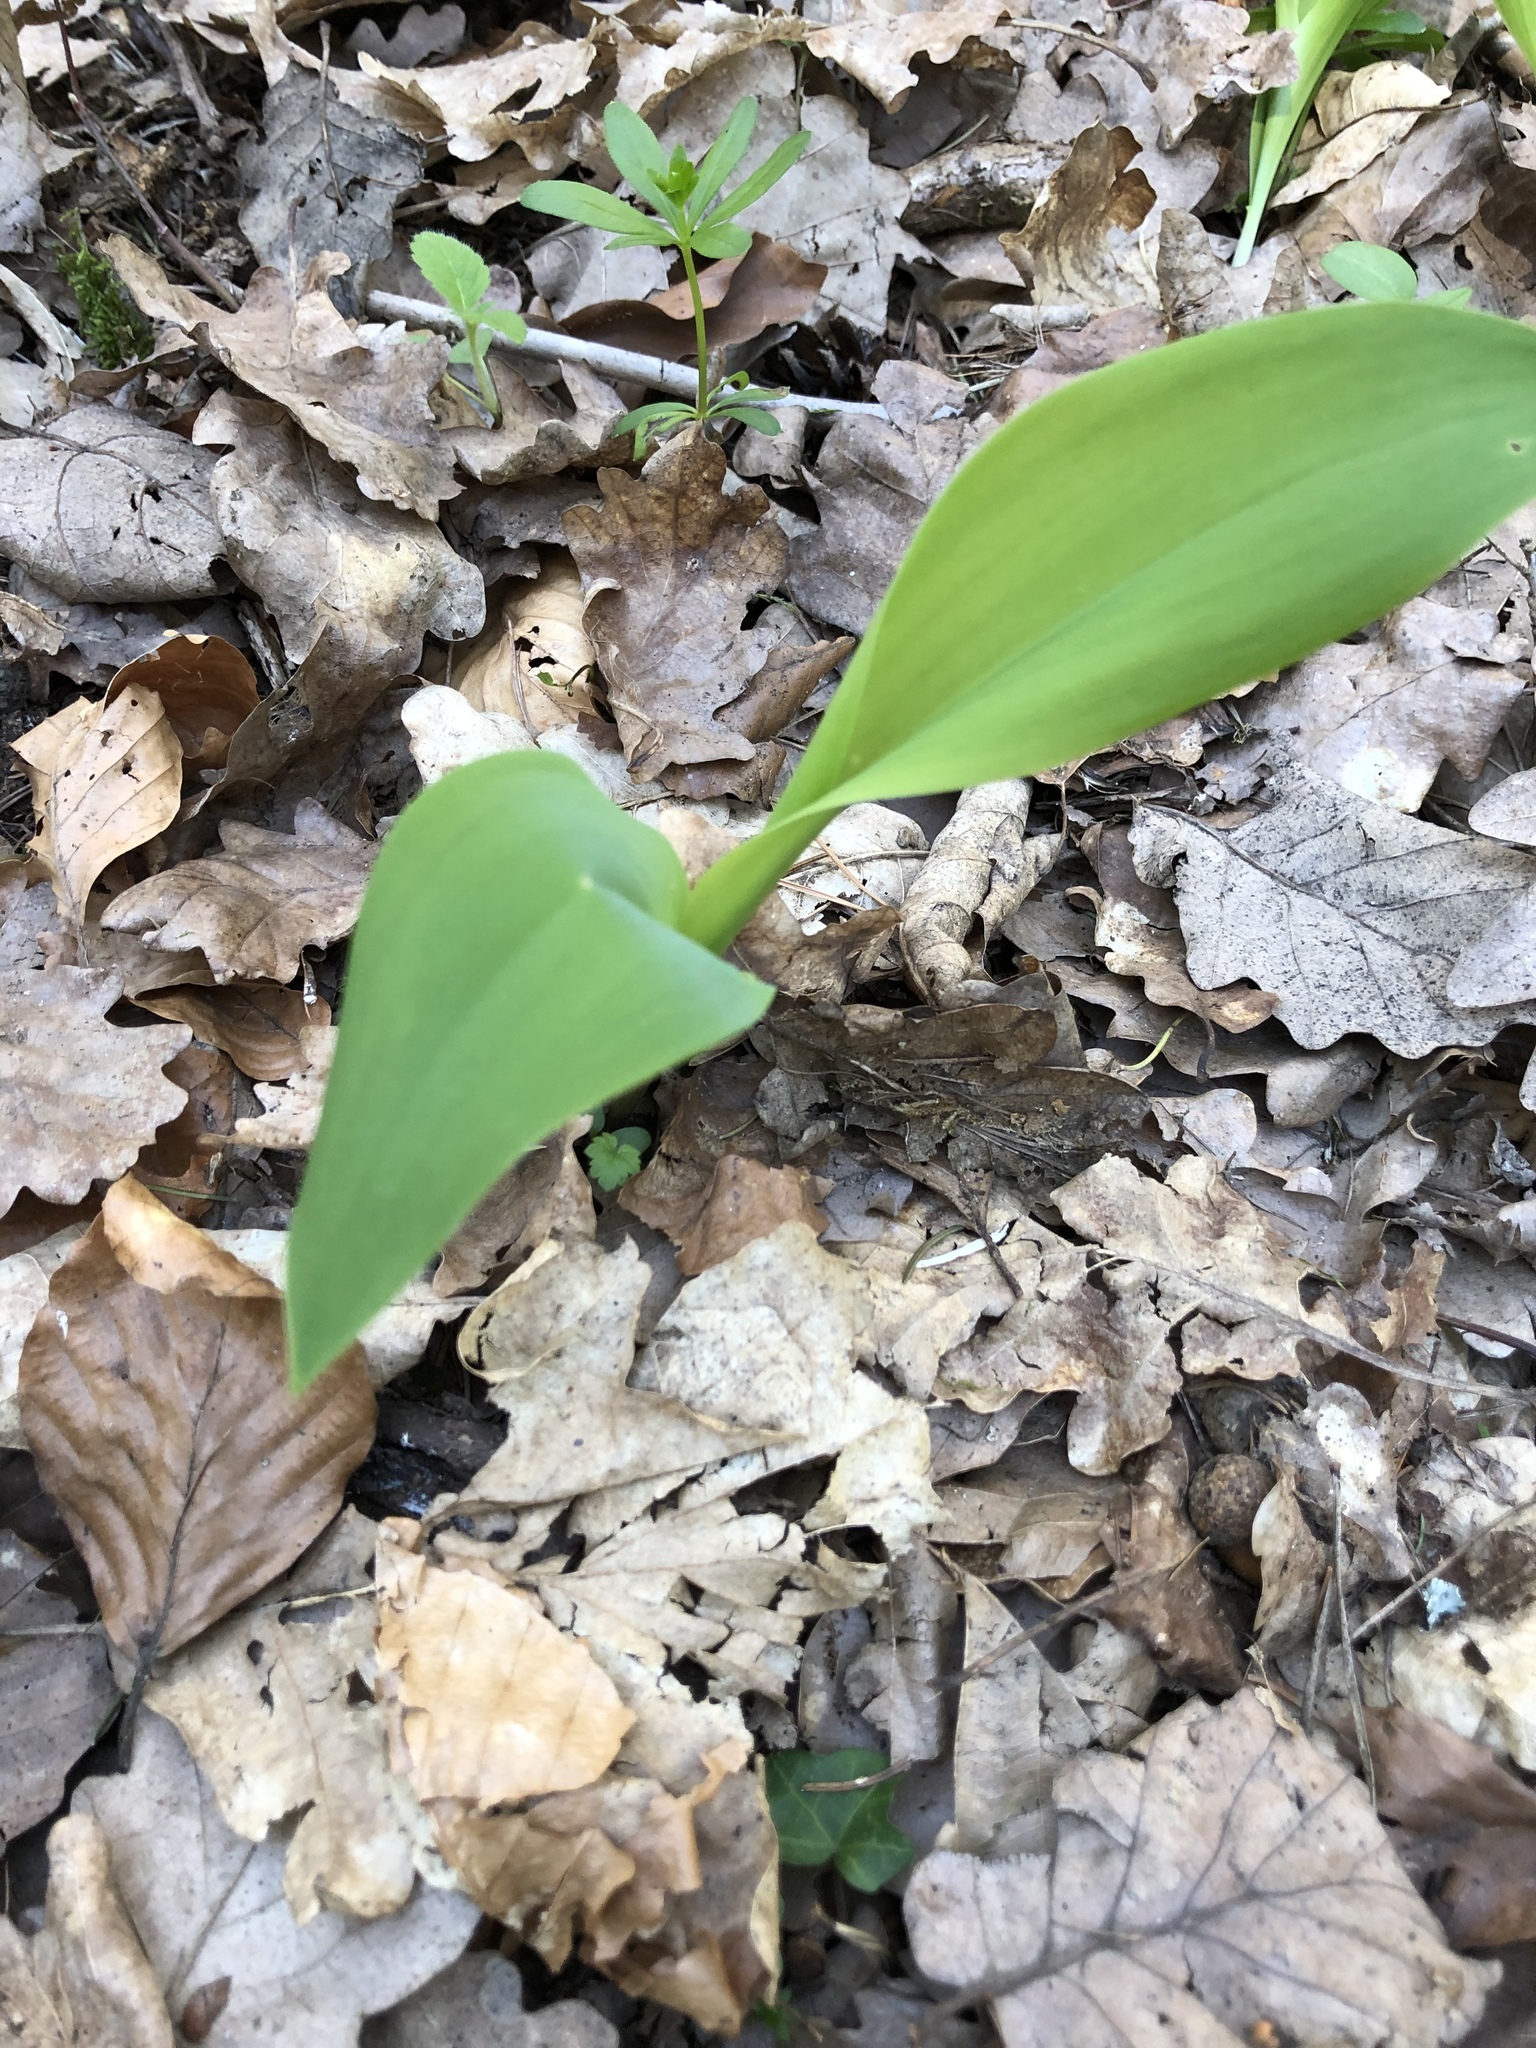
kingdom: Plantae
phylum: Tracheophyta
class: Liliopsida
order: Asparagales
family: Asparagaceae
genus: Convallaria
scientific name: Convallaria majalis
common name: Lily-of-the-valley
